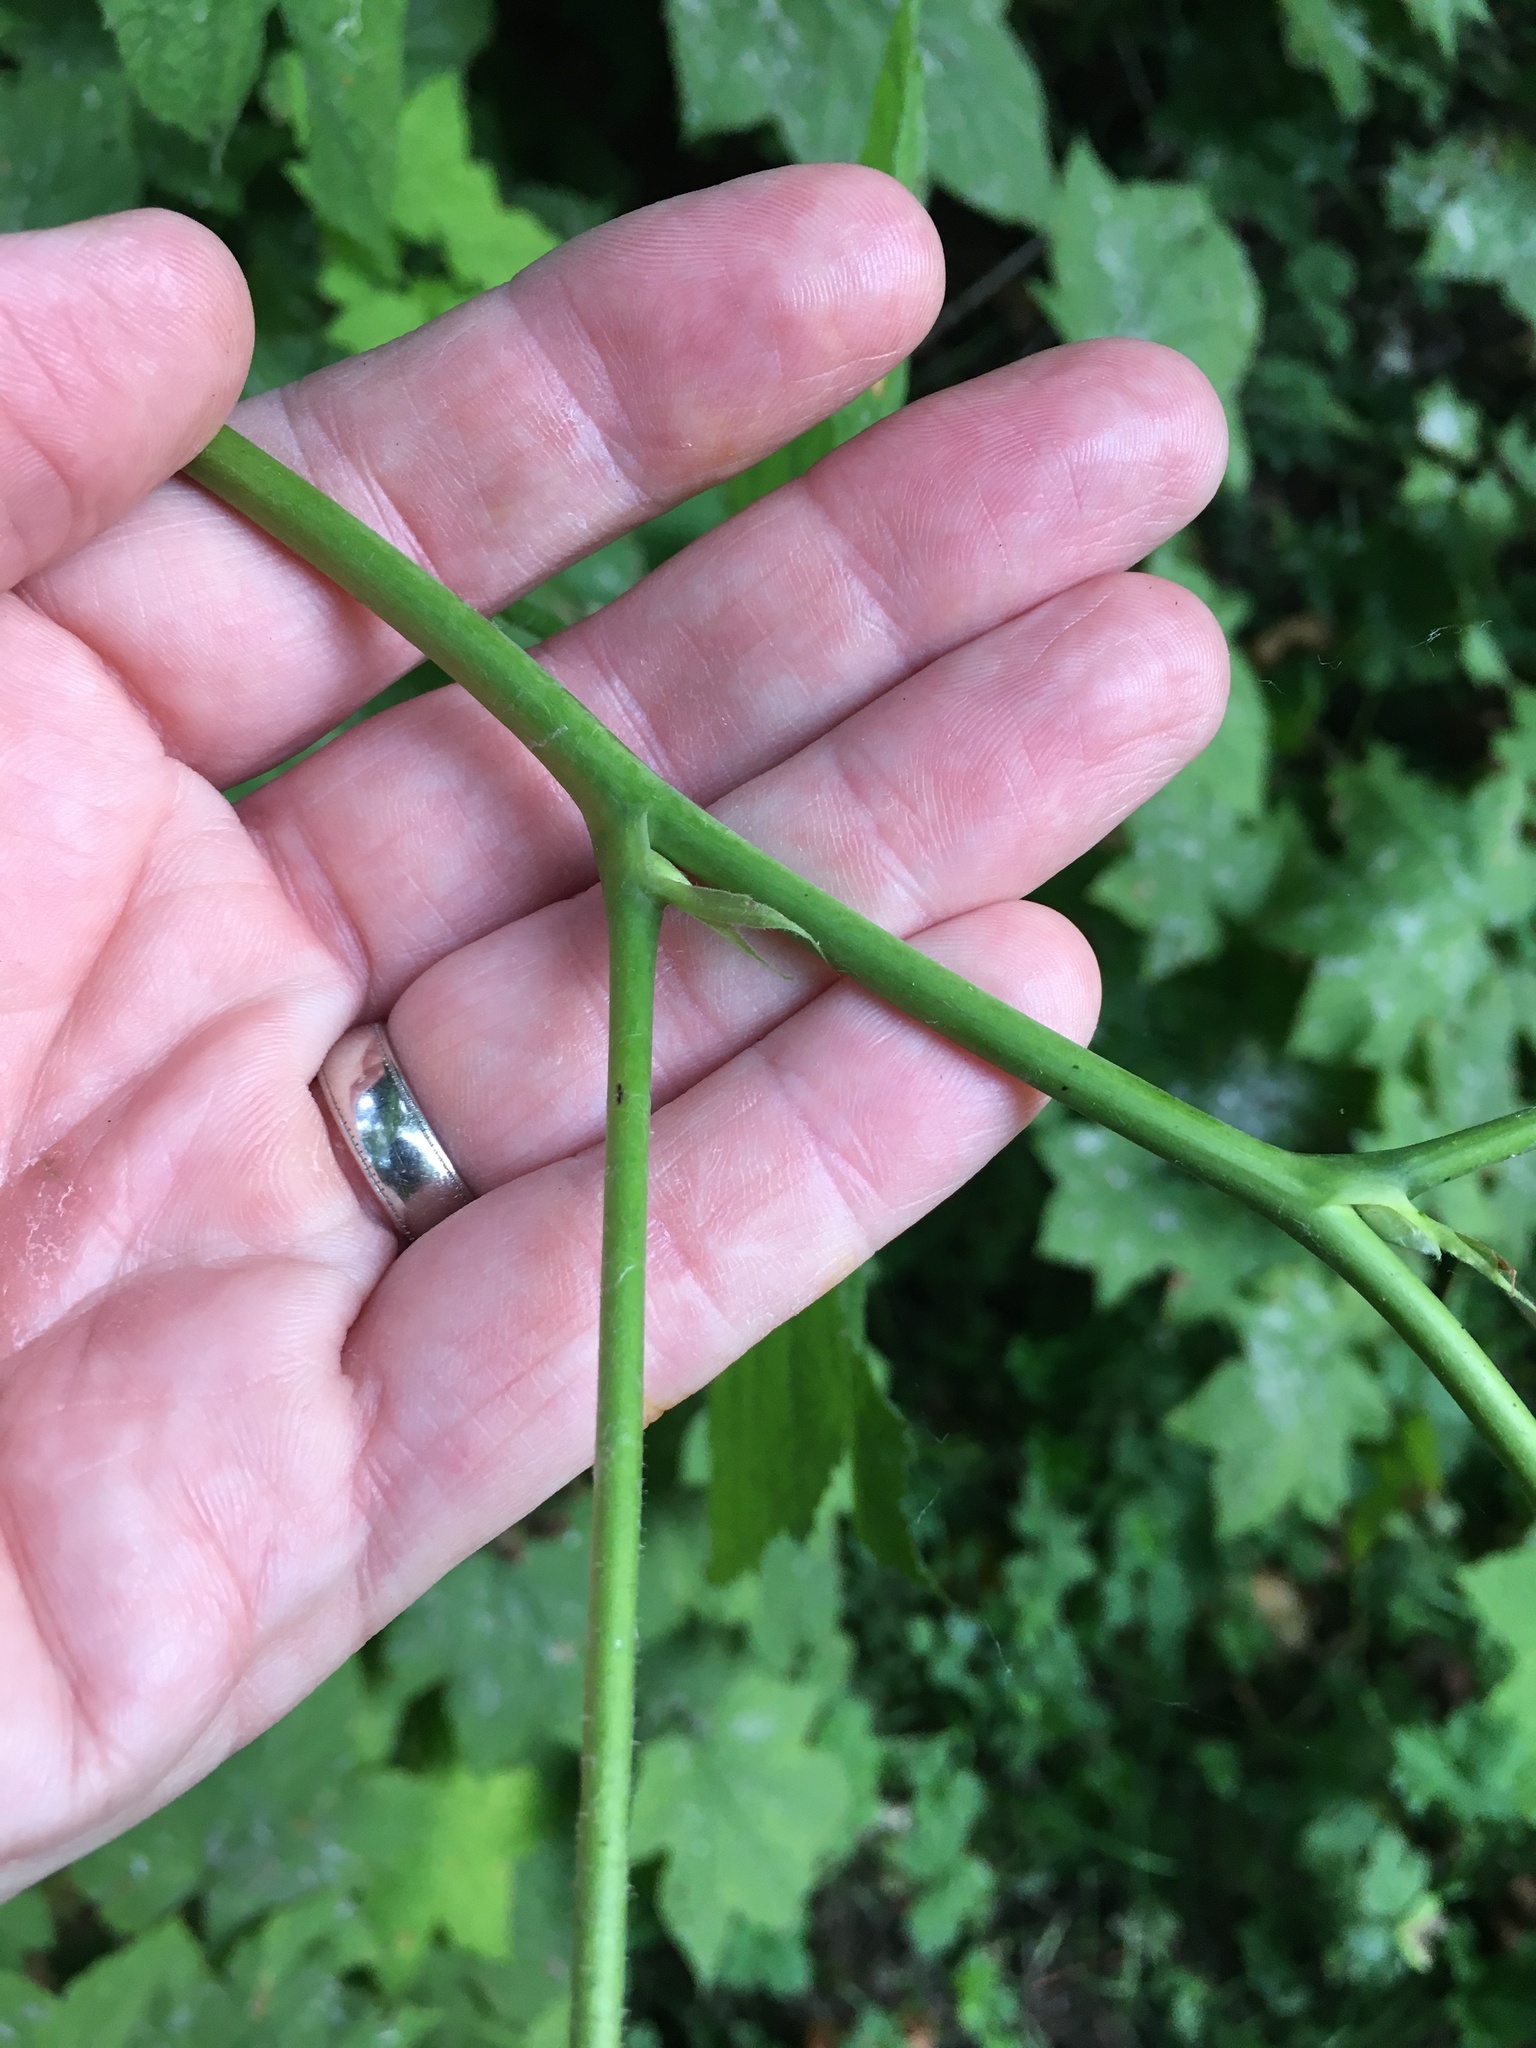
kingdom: Plantae
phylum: Tracheophyta
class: Magnoliopsida
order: Rosales
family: Rosaceae
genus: Rubus
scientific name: Rubus parviflorus
